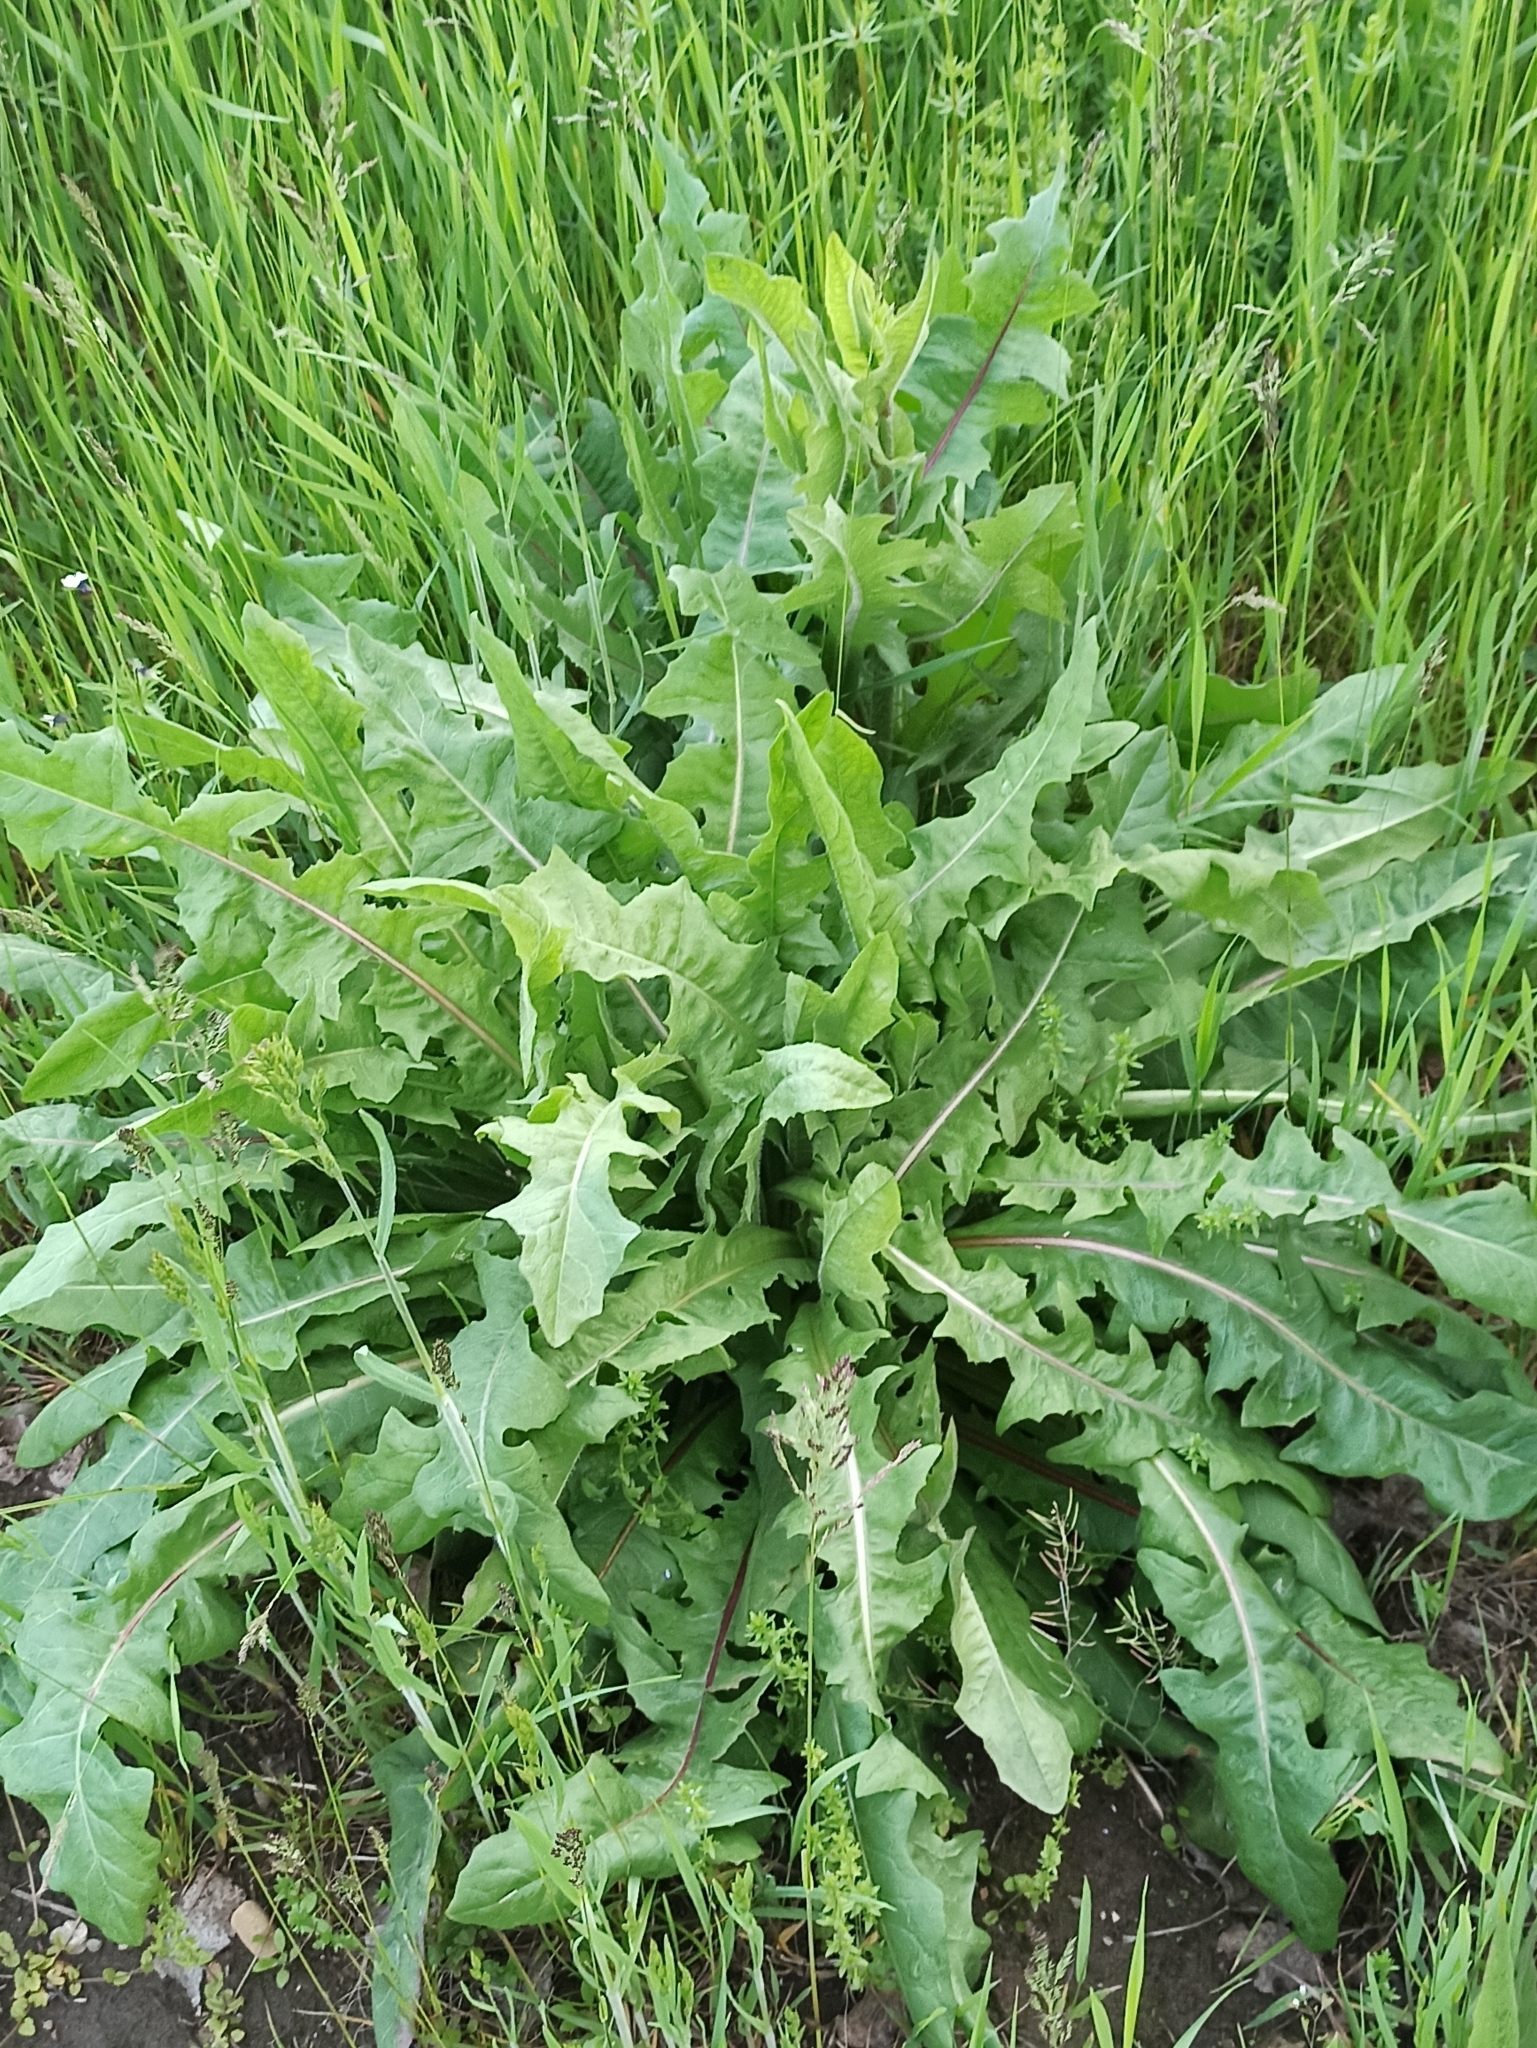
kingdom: Plantae
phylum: Tracheophyta
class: Magnoliopsida
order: Asterales
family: Asteraceae
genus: Taraxacum
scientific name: Taraxacum officinale
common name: Common dandelion
